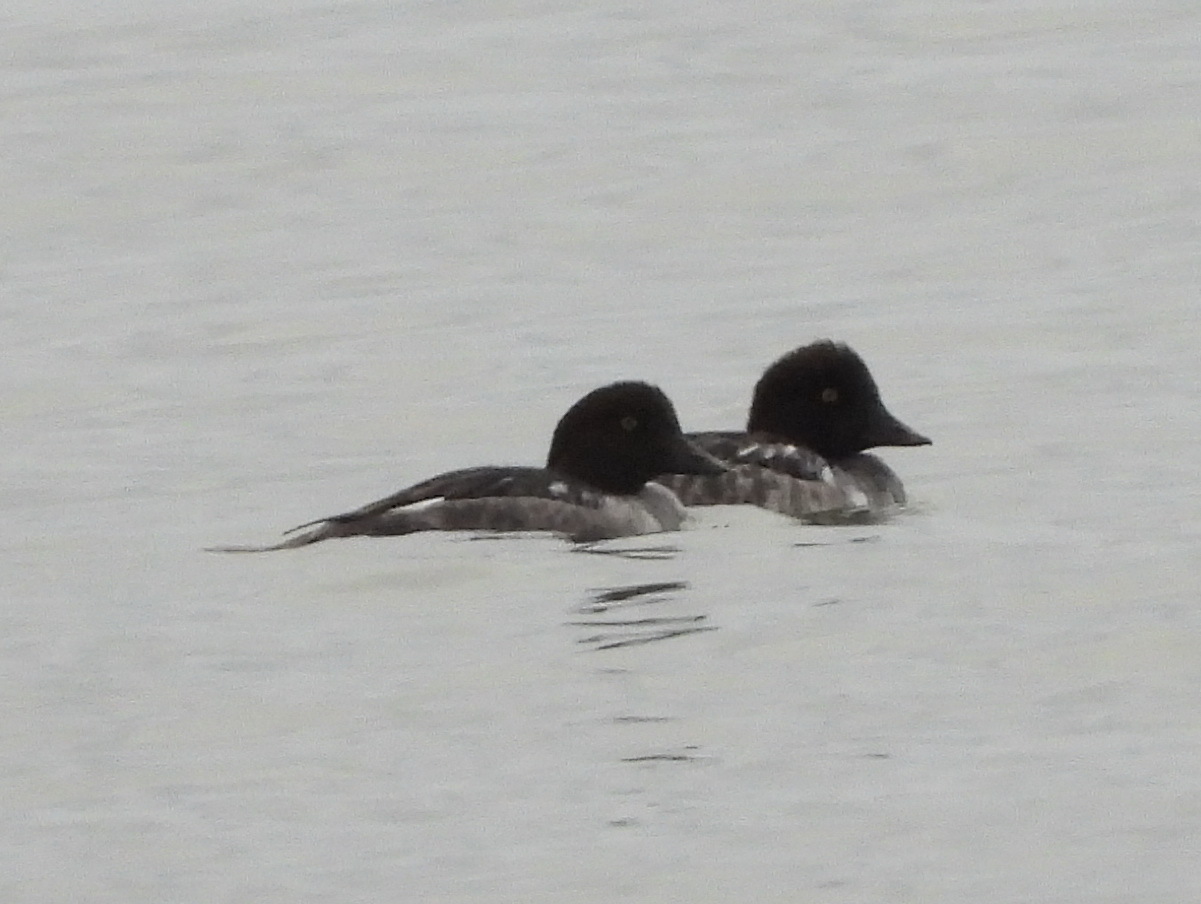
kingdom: Animalia
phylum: Chordata
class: Aves
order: Anseriformes
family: Anatidae
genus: Bucephala
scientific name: Bucephala clangula
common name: Common goldeneye
